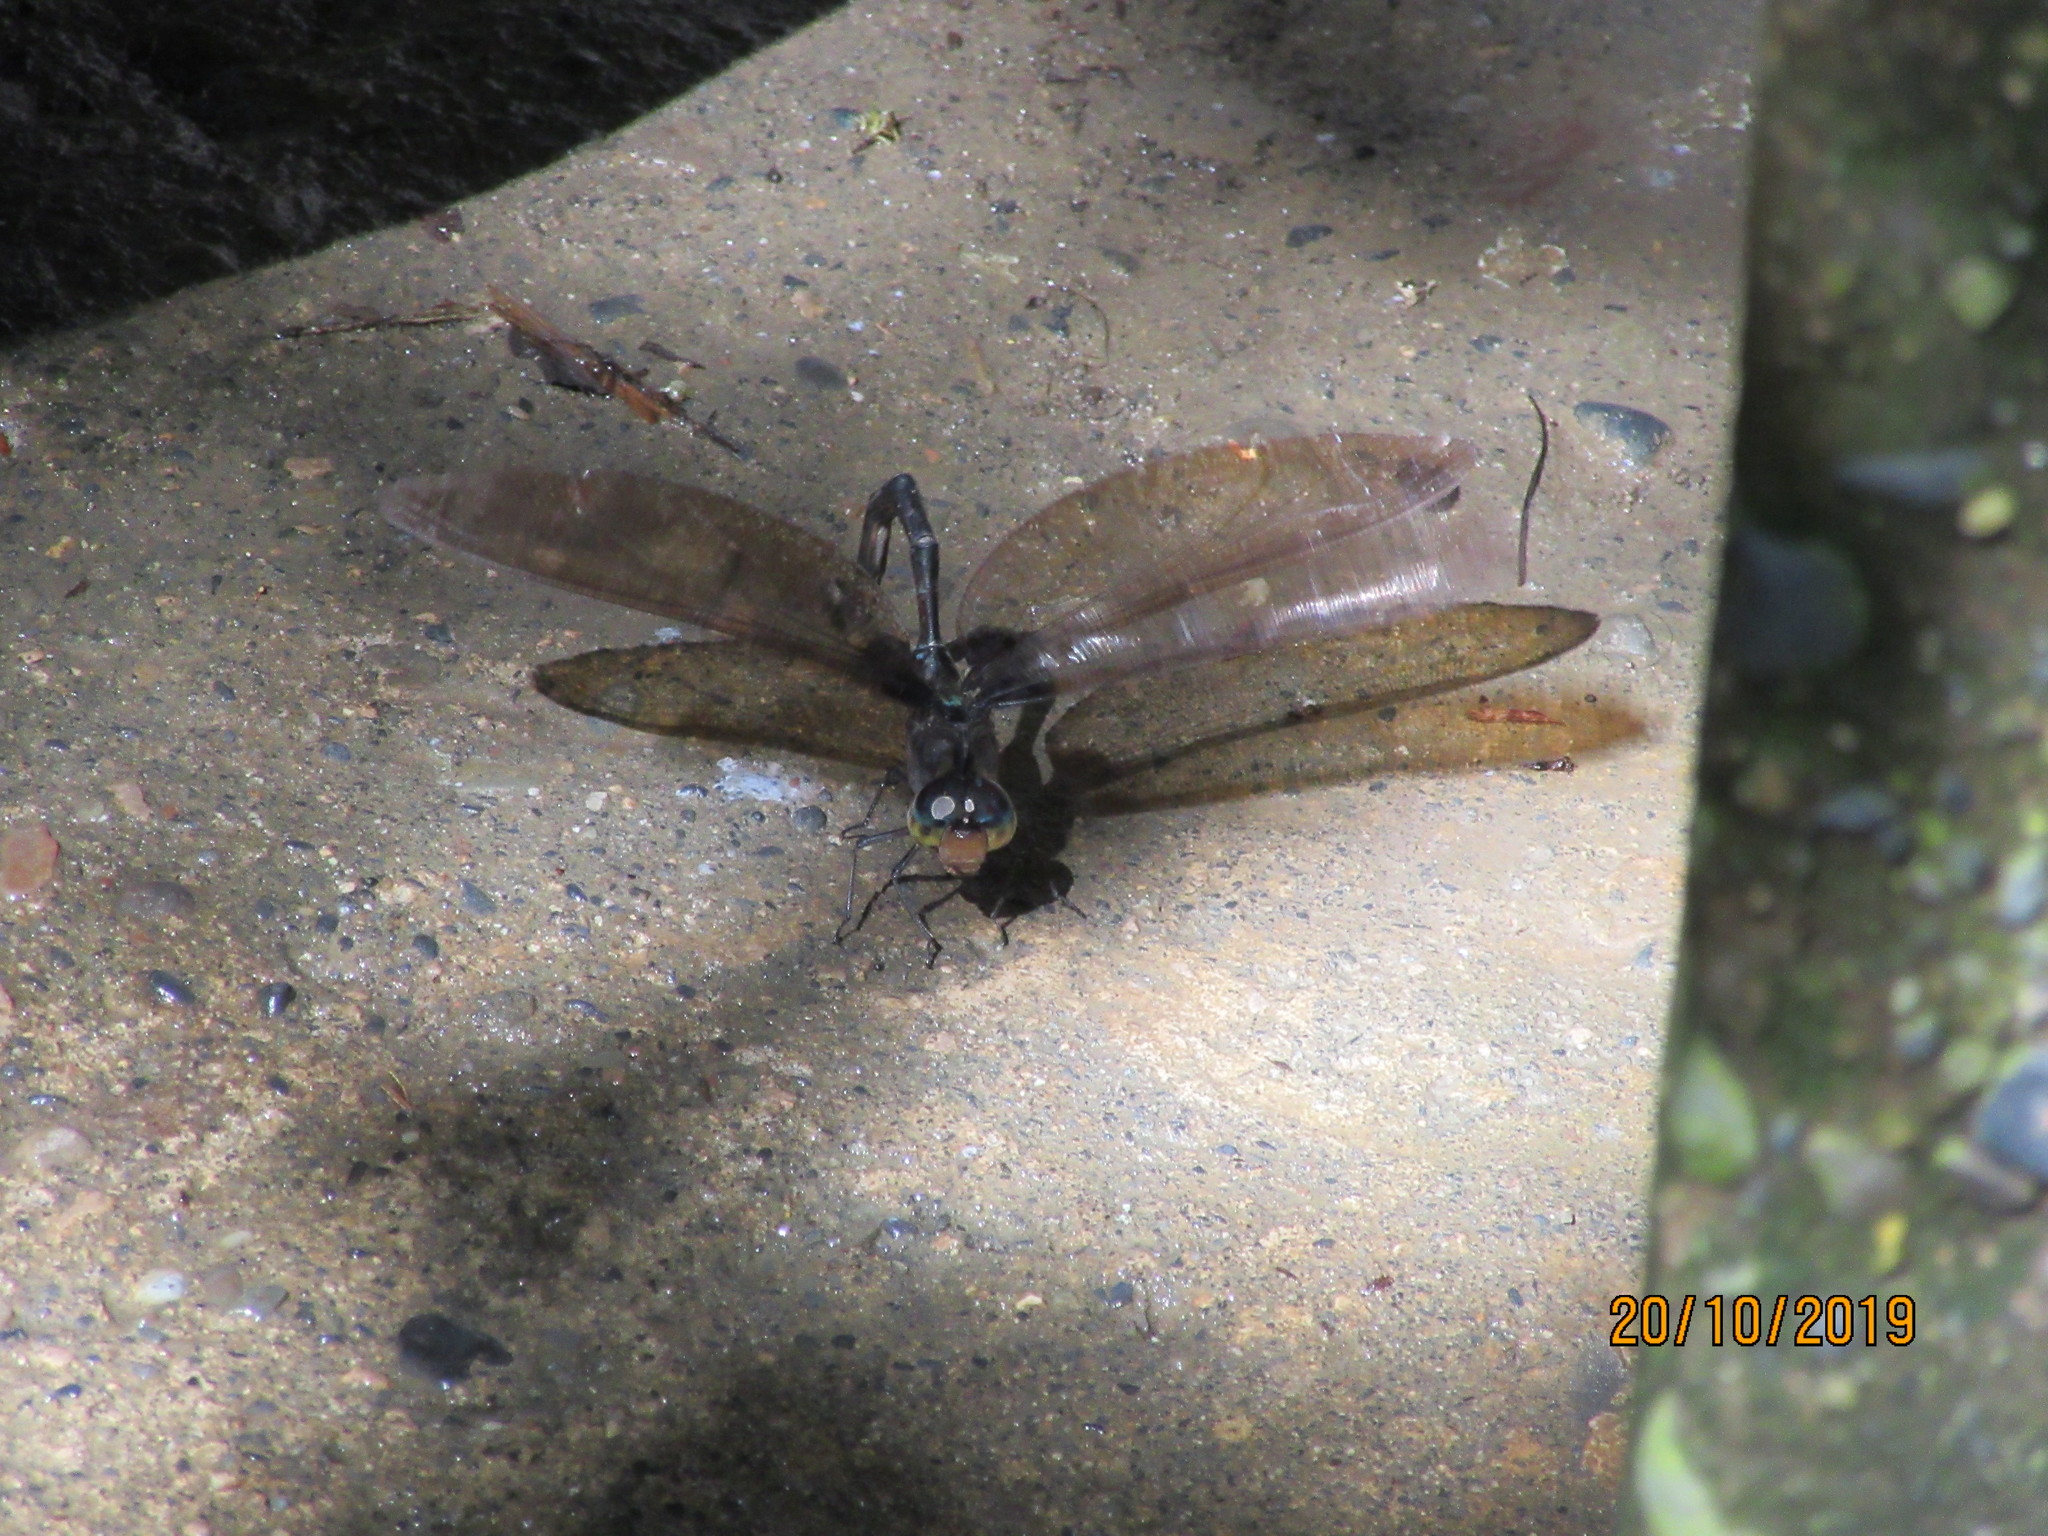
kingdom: Animalia
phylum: Arthropoda
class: Insecta
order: Odonata
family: Aeshnidae
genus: Gynacantha
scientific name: Gynacantha membranalis
